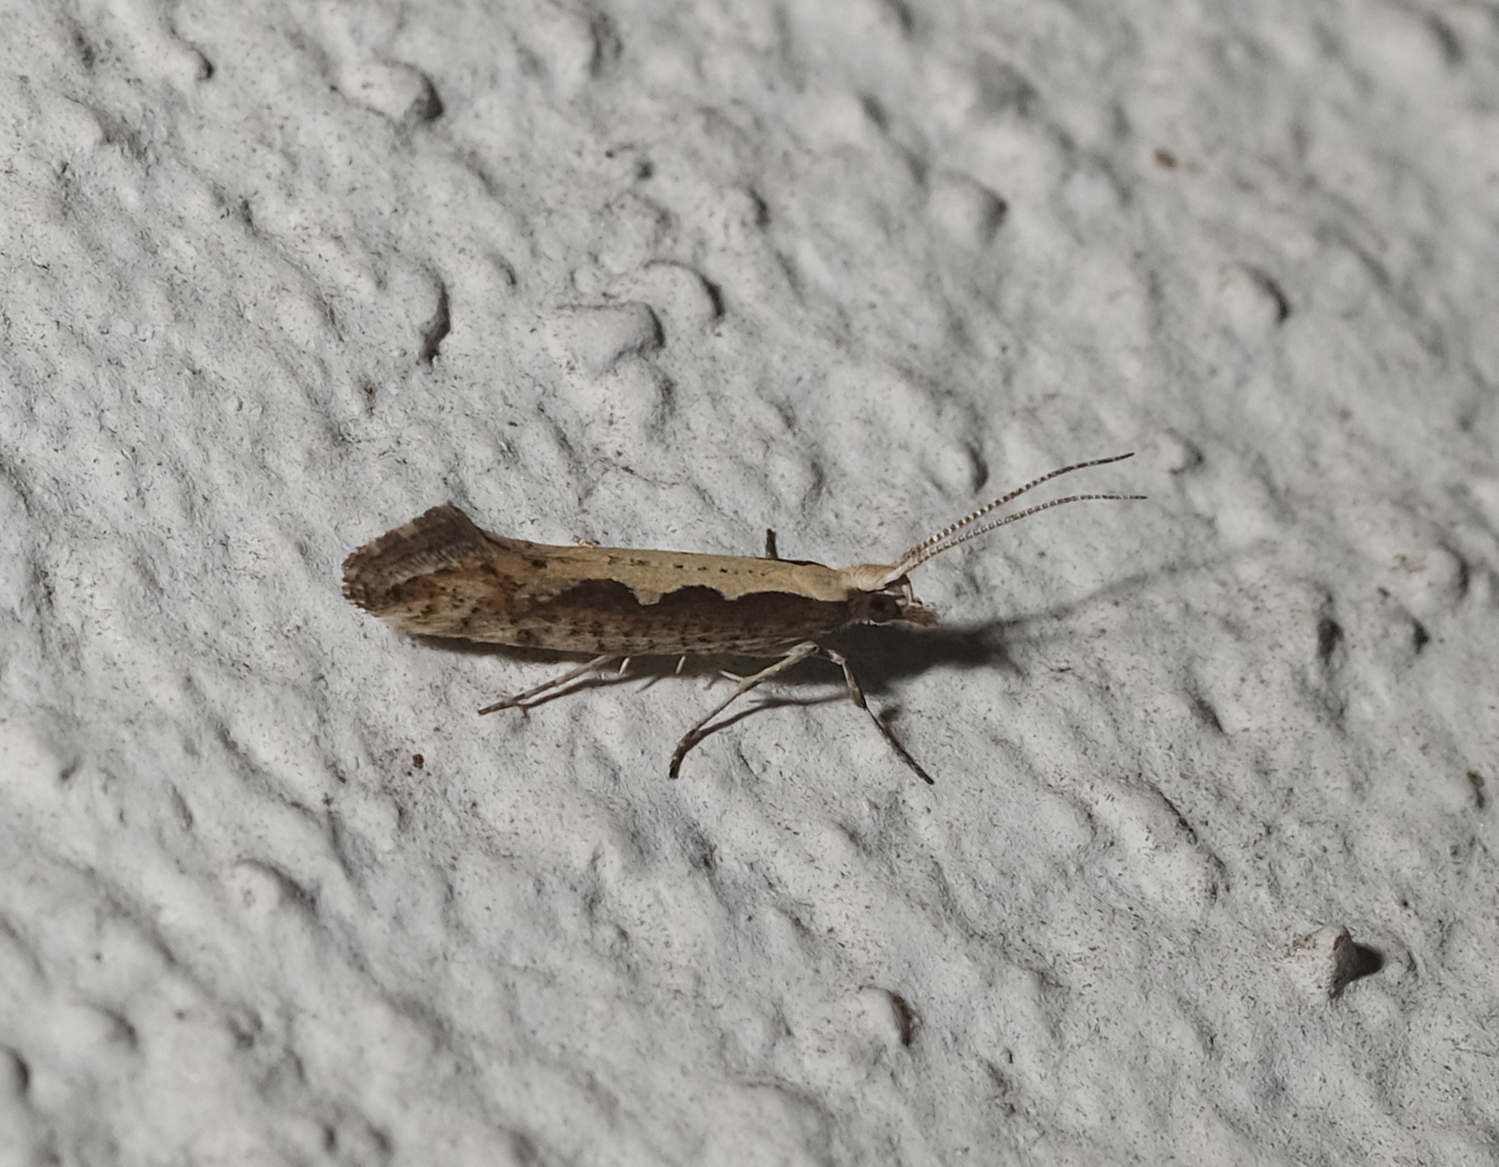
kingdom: Animalia
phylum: Arthropoda
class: Insecta
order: Lepidoptera
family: Plutellidae
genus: Plutella
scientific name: Plutella xylostella
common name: Diamond-back moth
